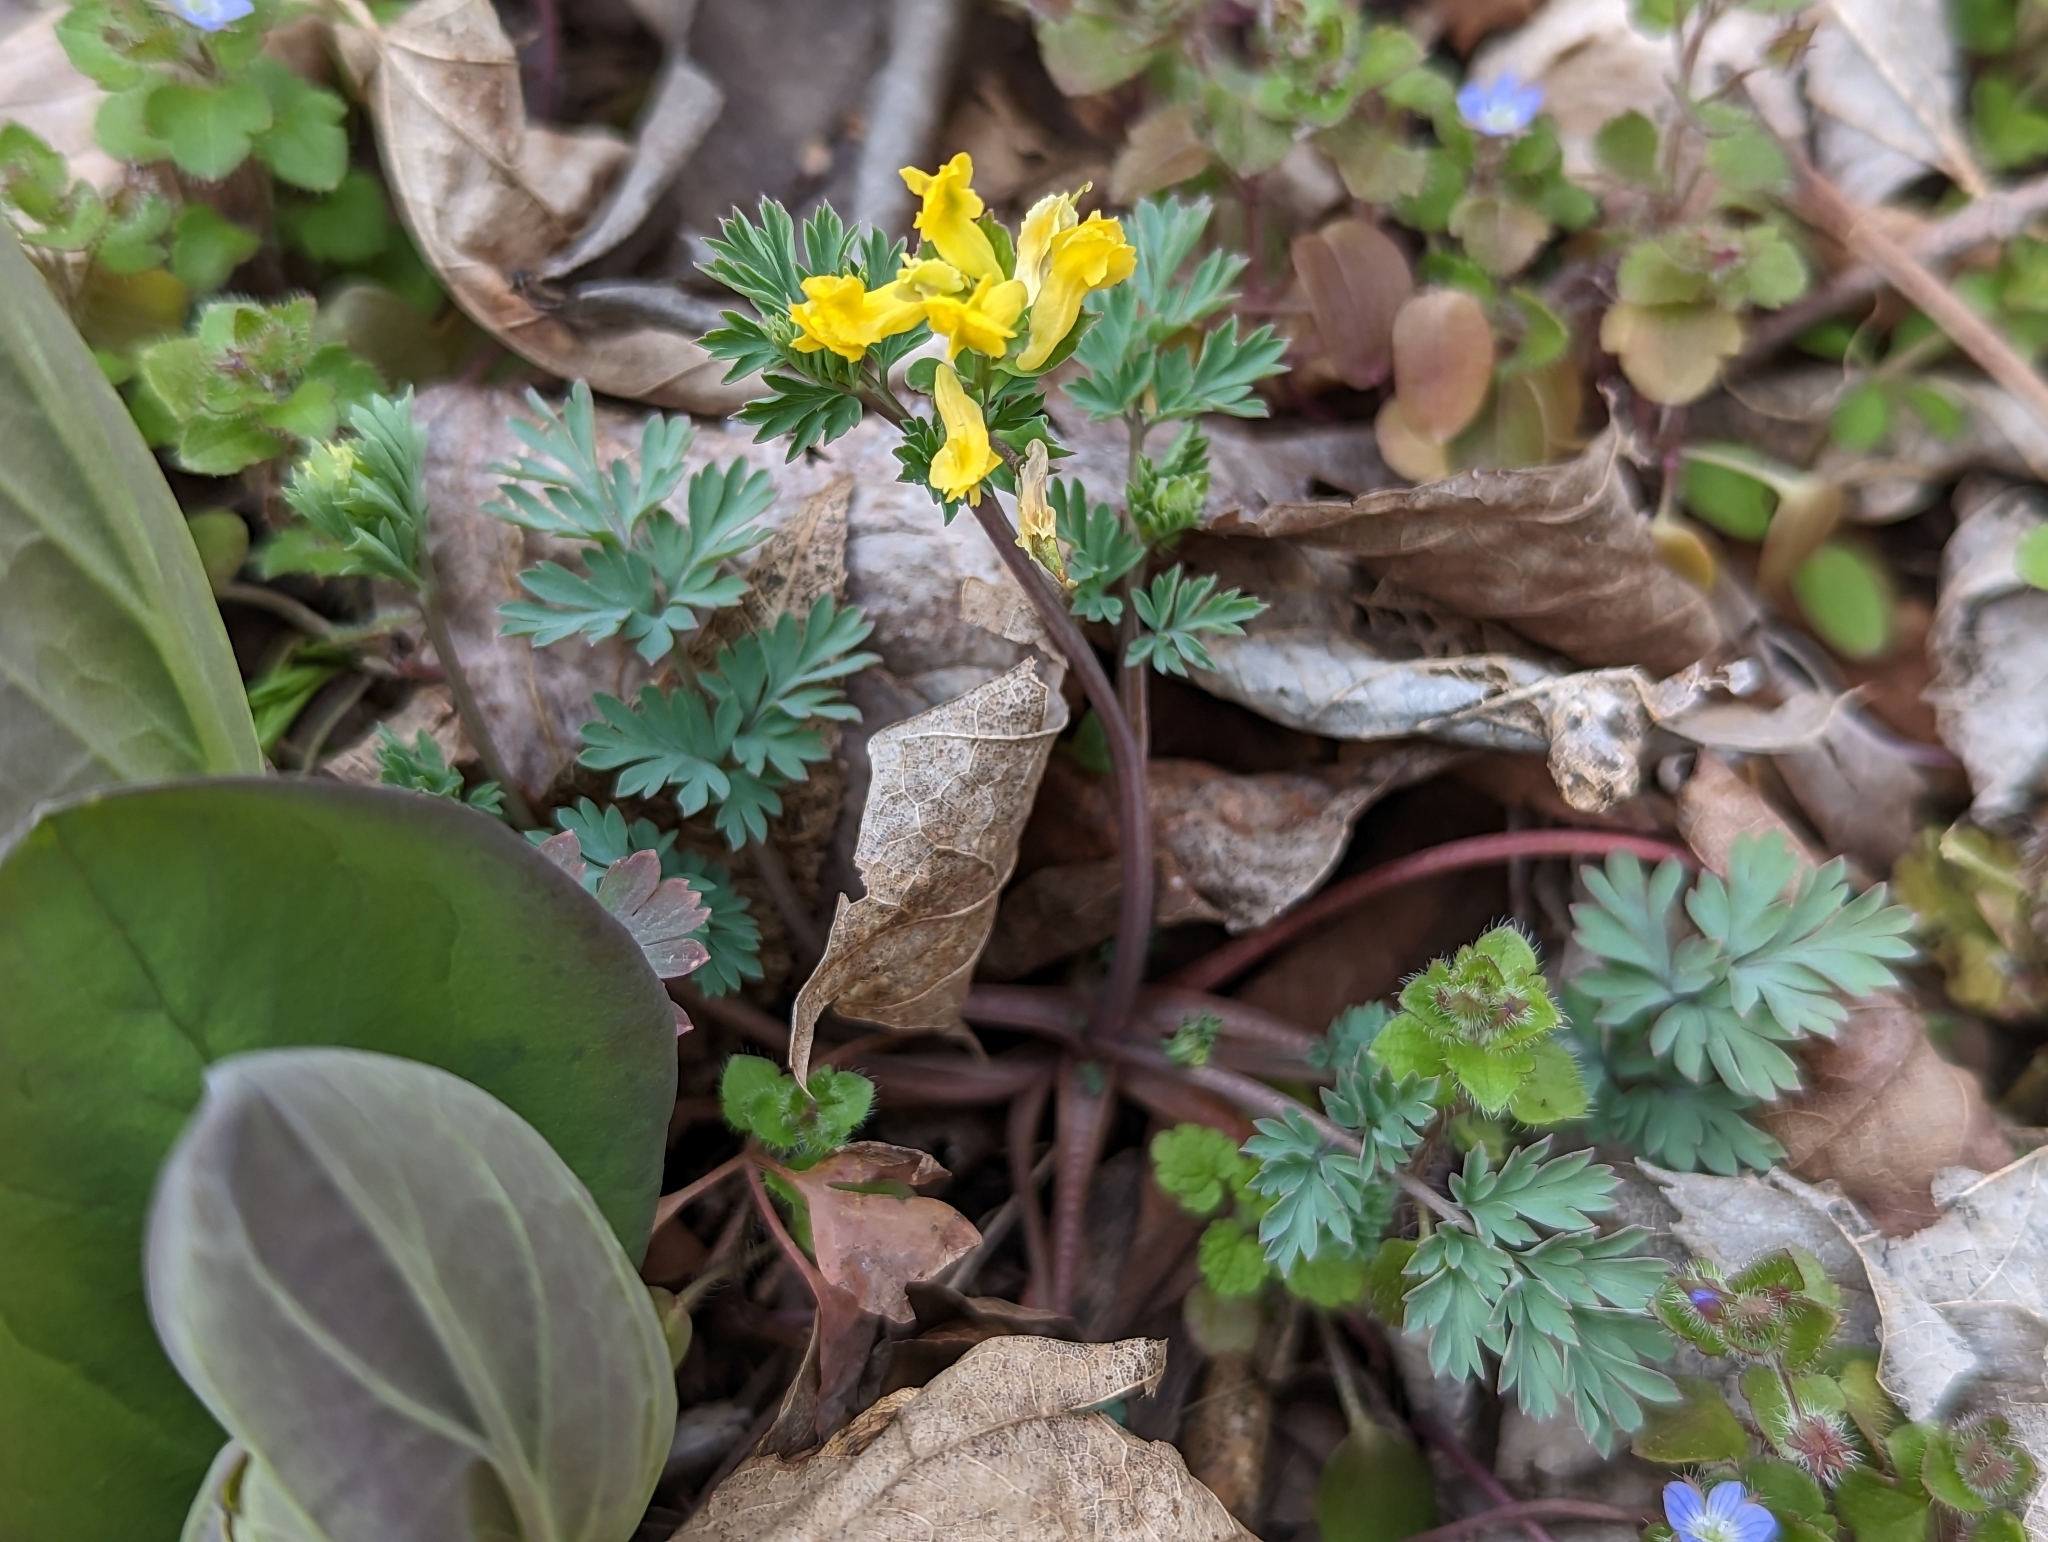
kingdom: Plantae
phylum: Tracheophyta
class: Magnoliopsida
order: Ranunculales
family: Papaveraceae
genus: Corydalis
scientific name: Corydalis flavula
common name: Yellow corydalis
